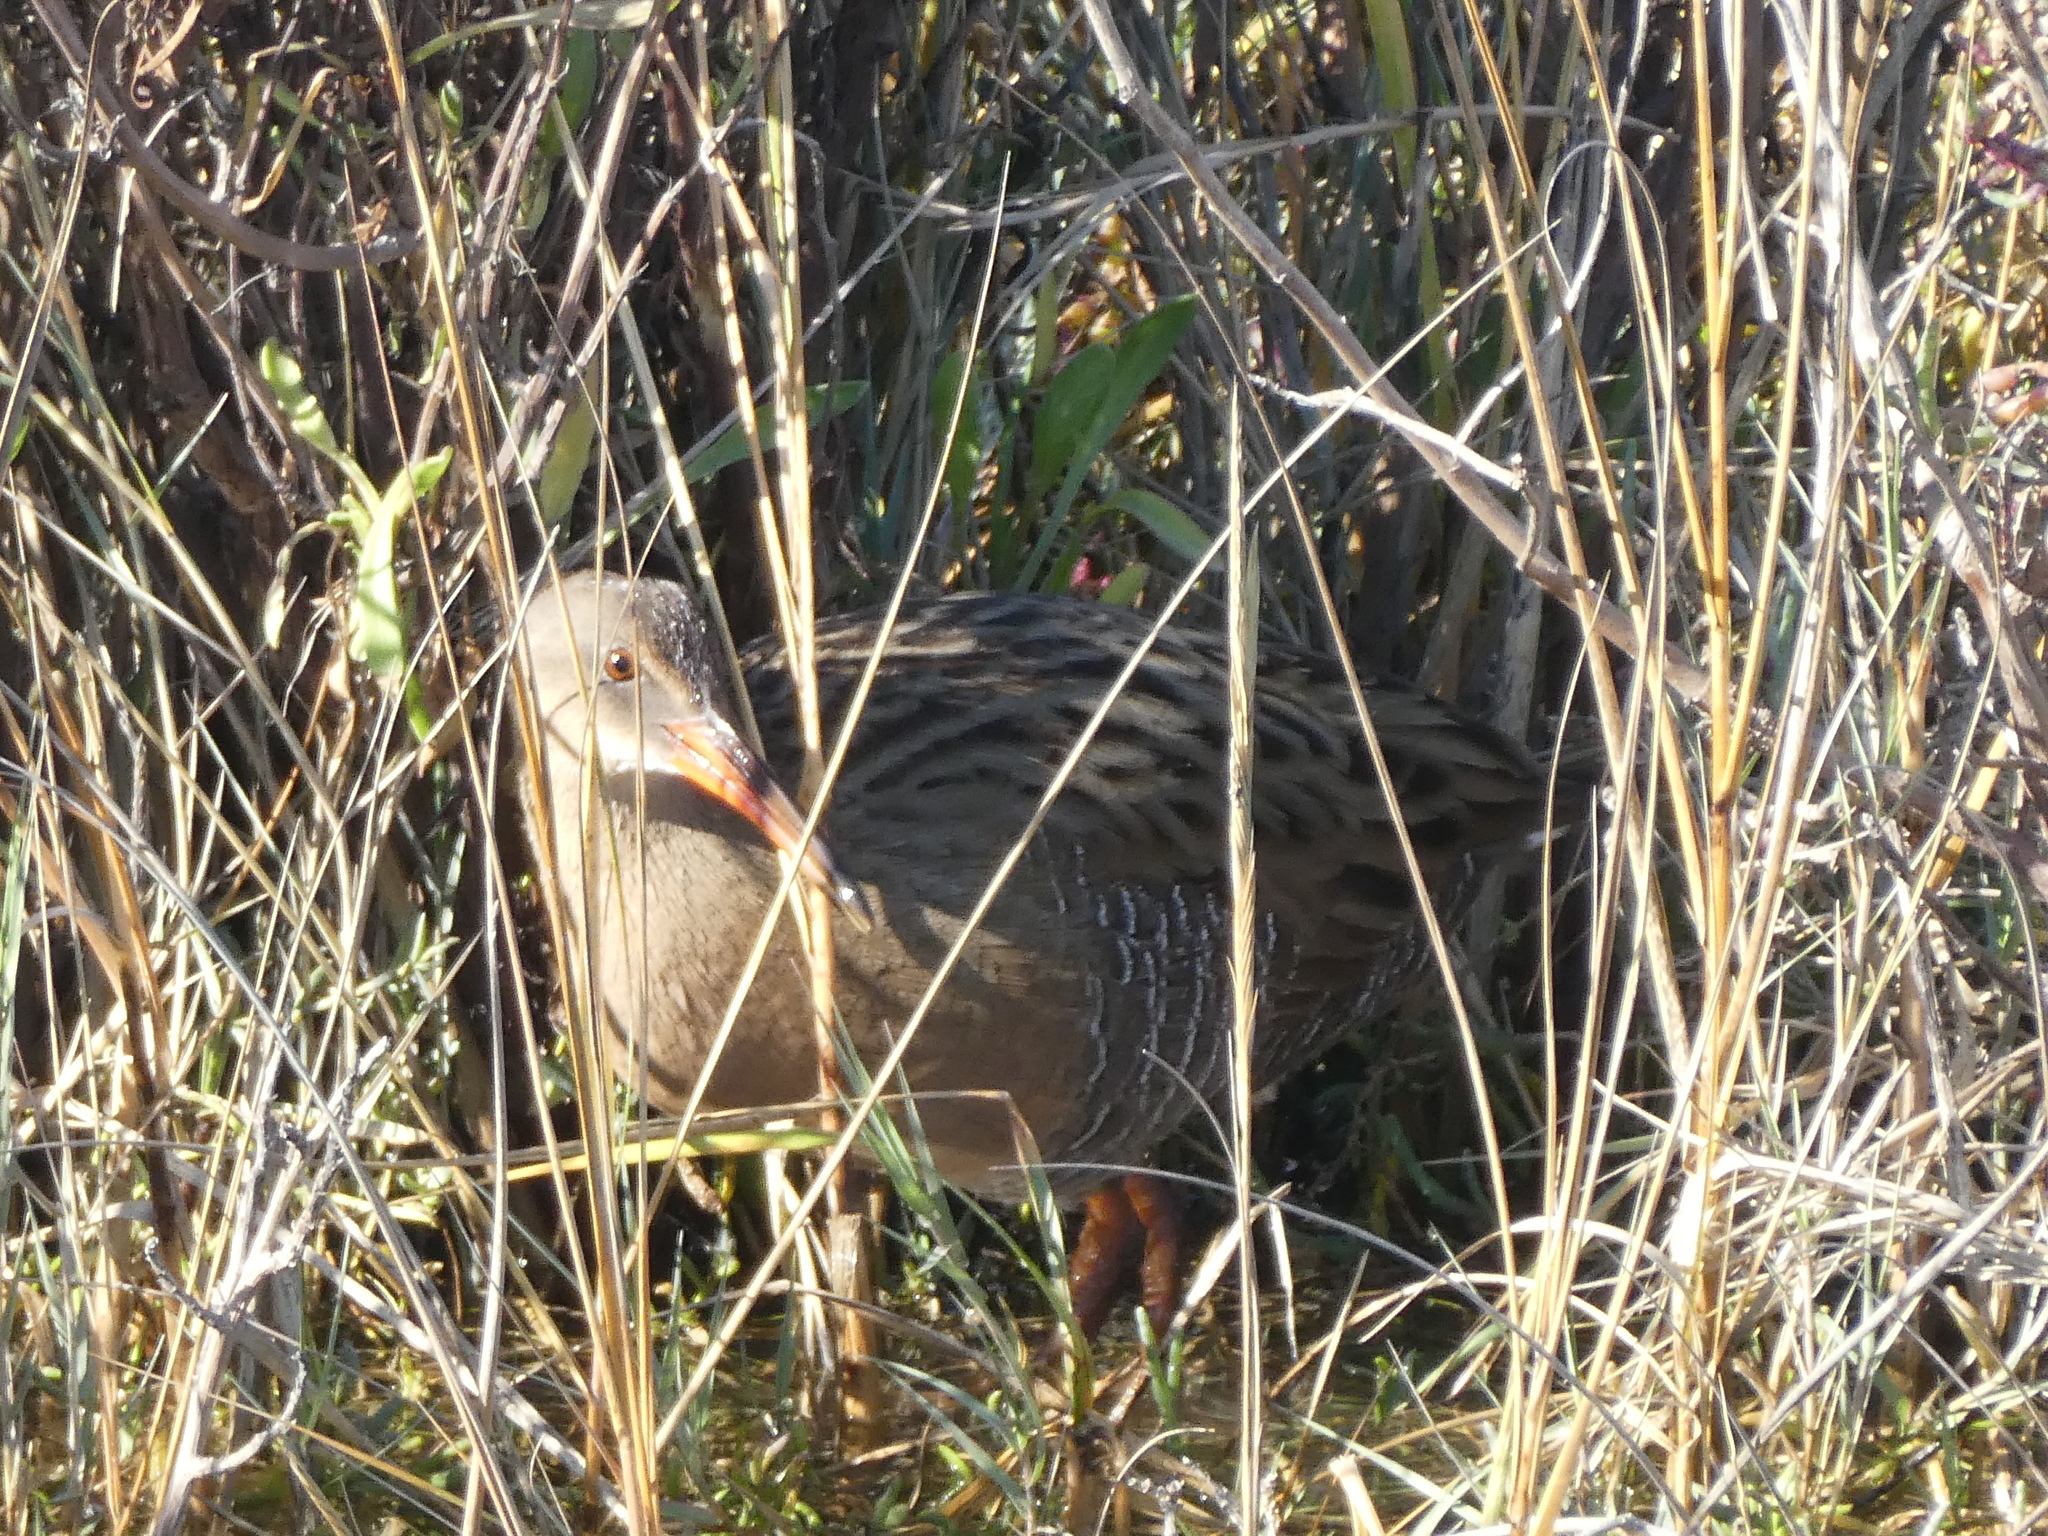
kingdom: Animalia
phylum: Chordata
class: Aves
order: Gruiformes
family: Rallidae
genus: Rallus
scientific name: Rallus obsoletus
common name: Ridgway's rail
